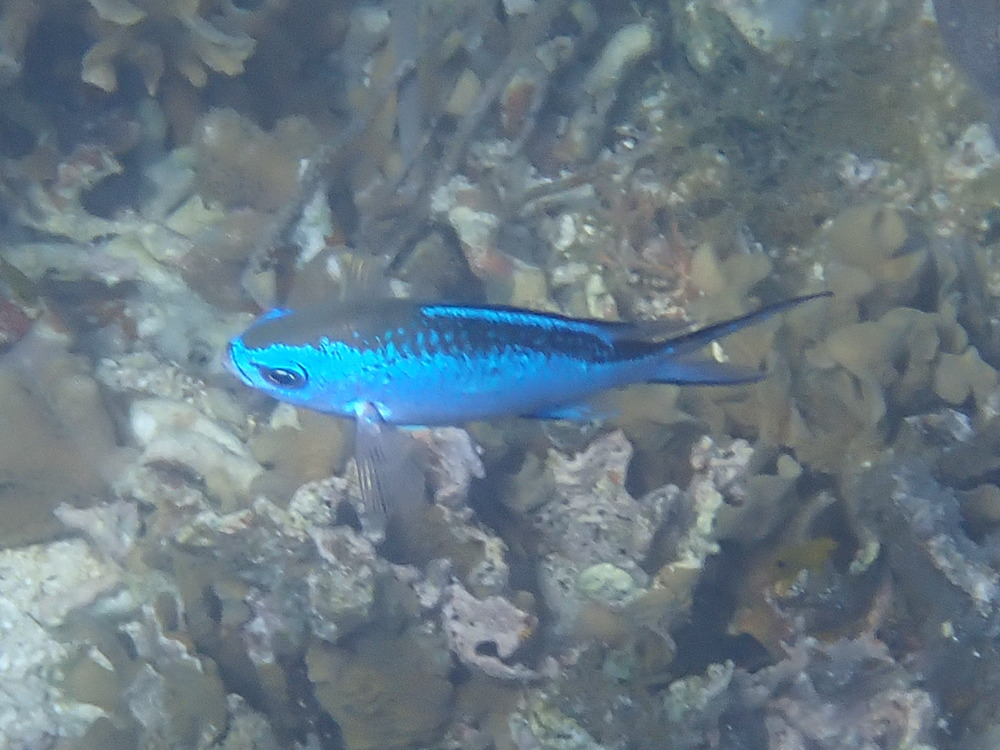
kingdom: Animalia
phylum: Chordata
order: Perciformes
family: Pomacentridae
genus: Chromis
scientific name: Chromis cyanea
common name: Blue chromis
